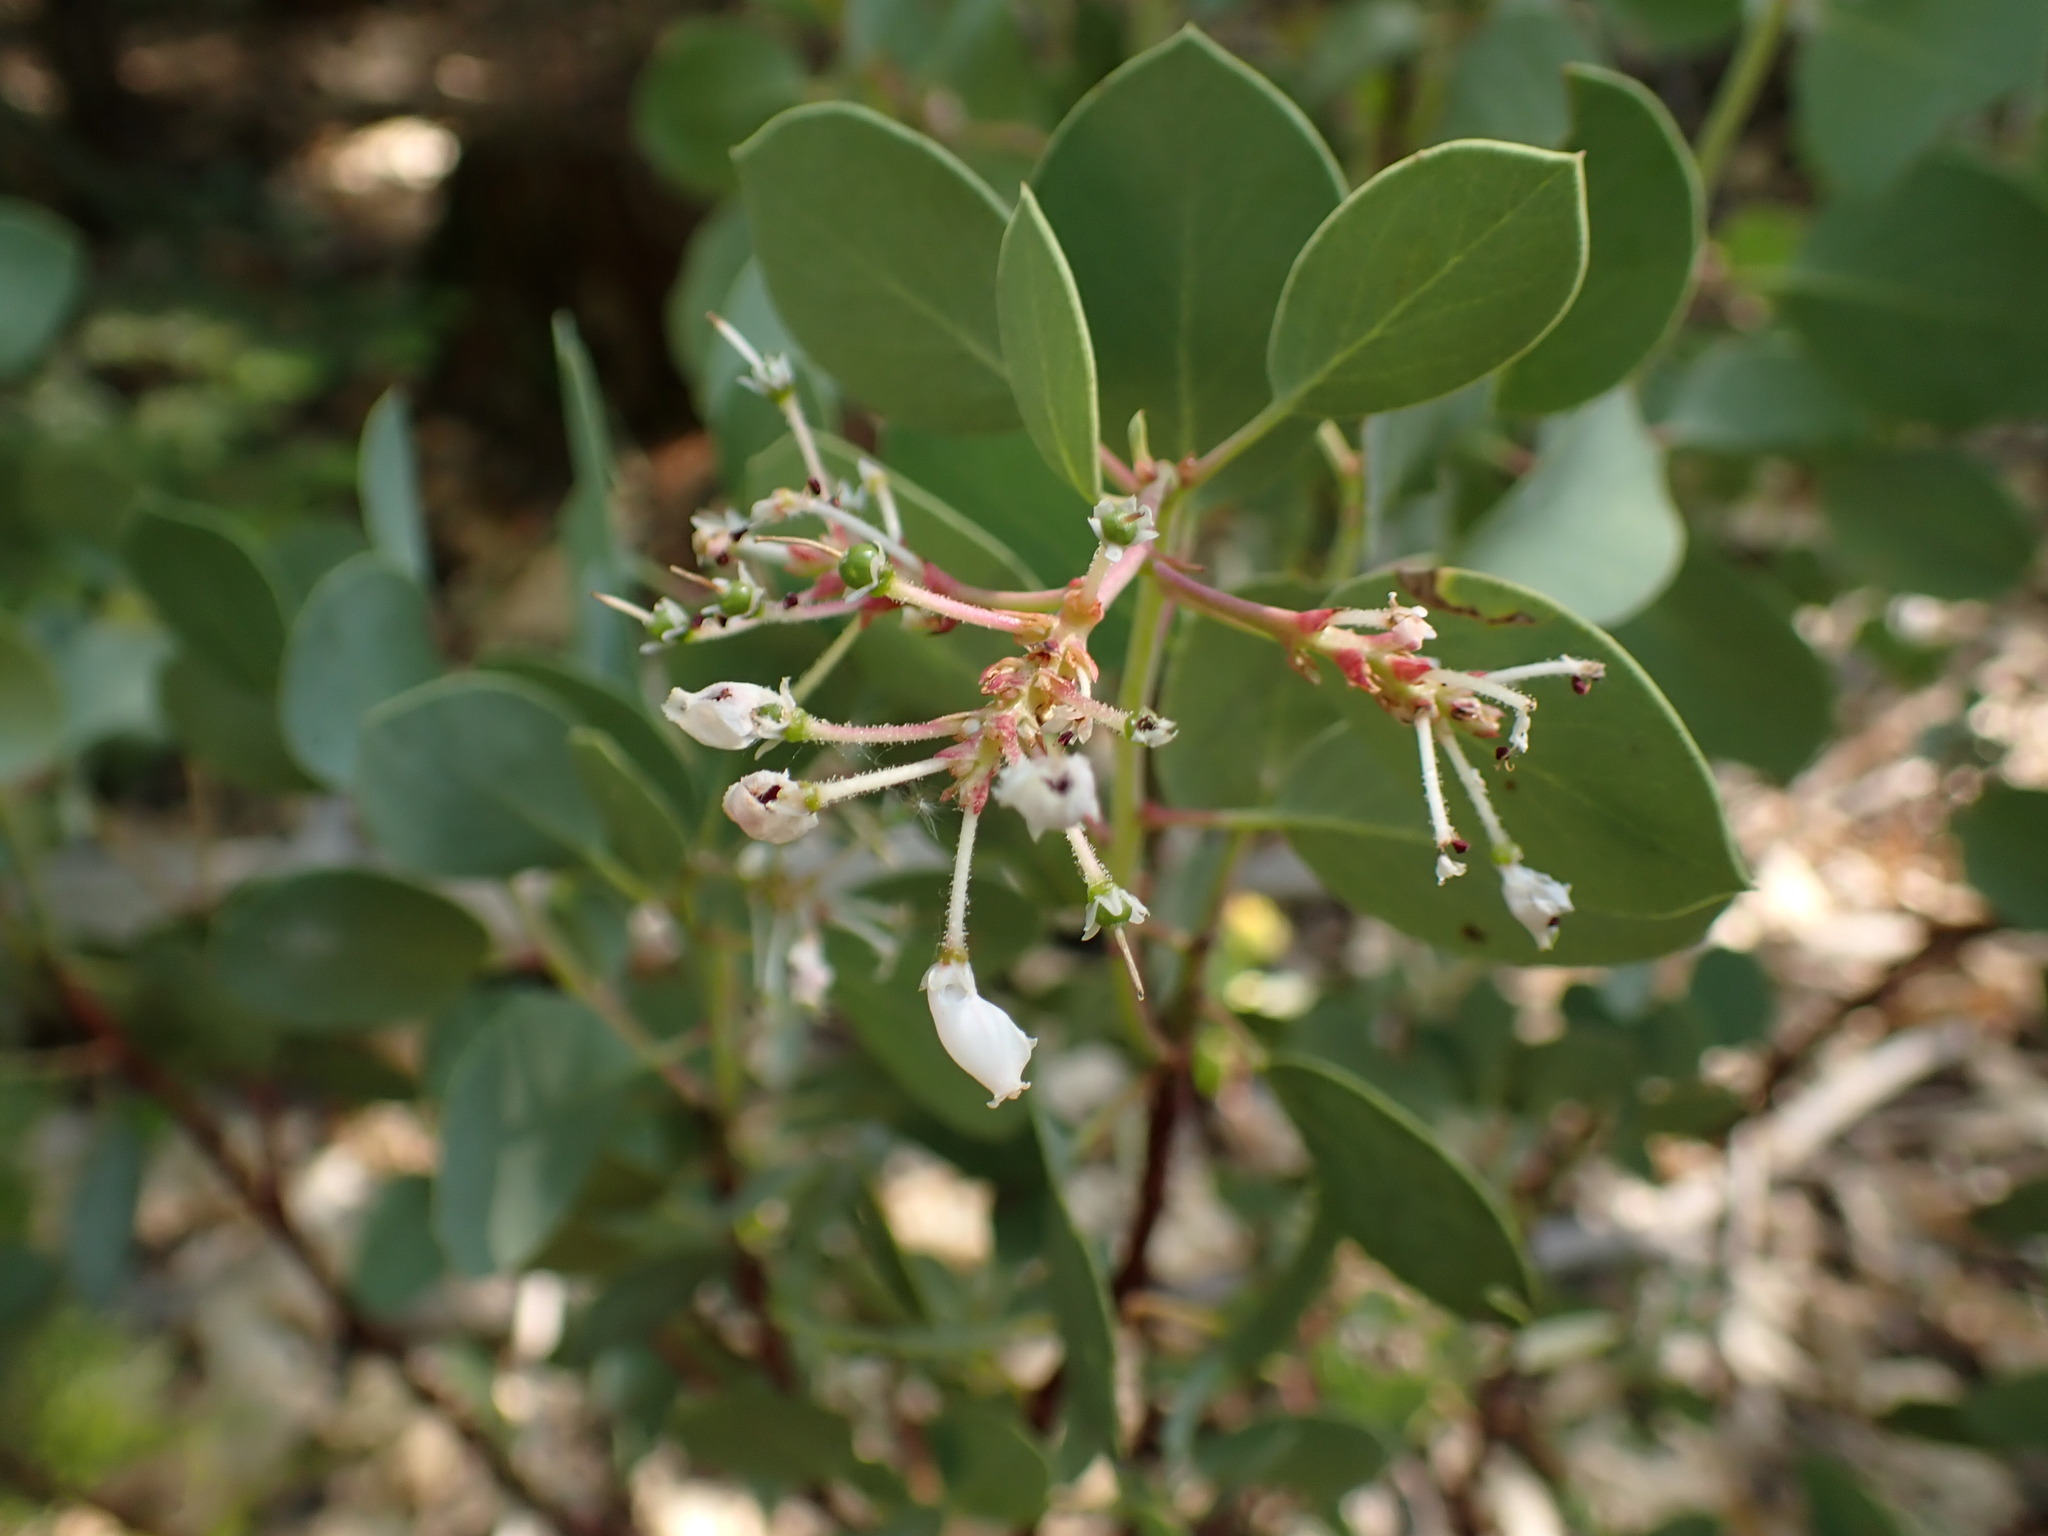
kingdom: Plantae
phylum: Tracheophyta
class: Magnoliopsida
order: Ericales
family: Ericaceae
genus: Arctostaphylos
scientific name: Arctostaphylos viscida
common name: White-leaf manzanita
